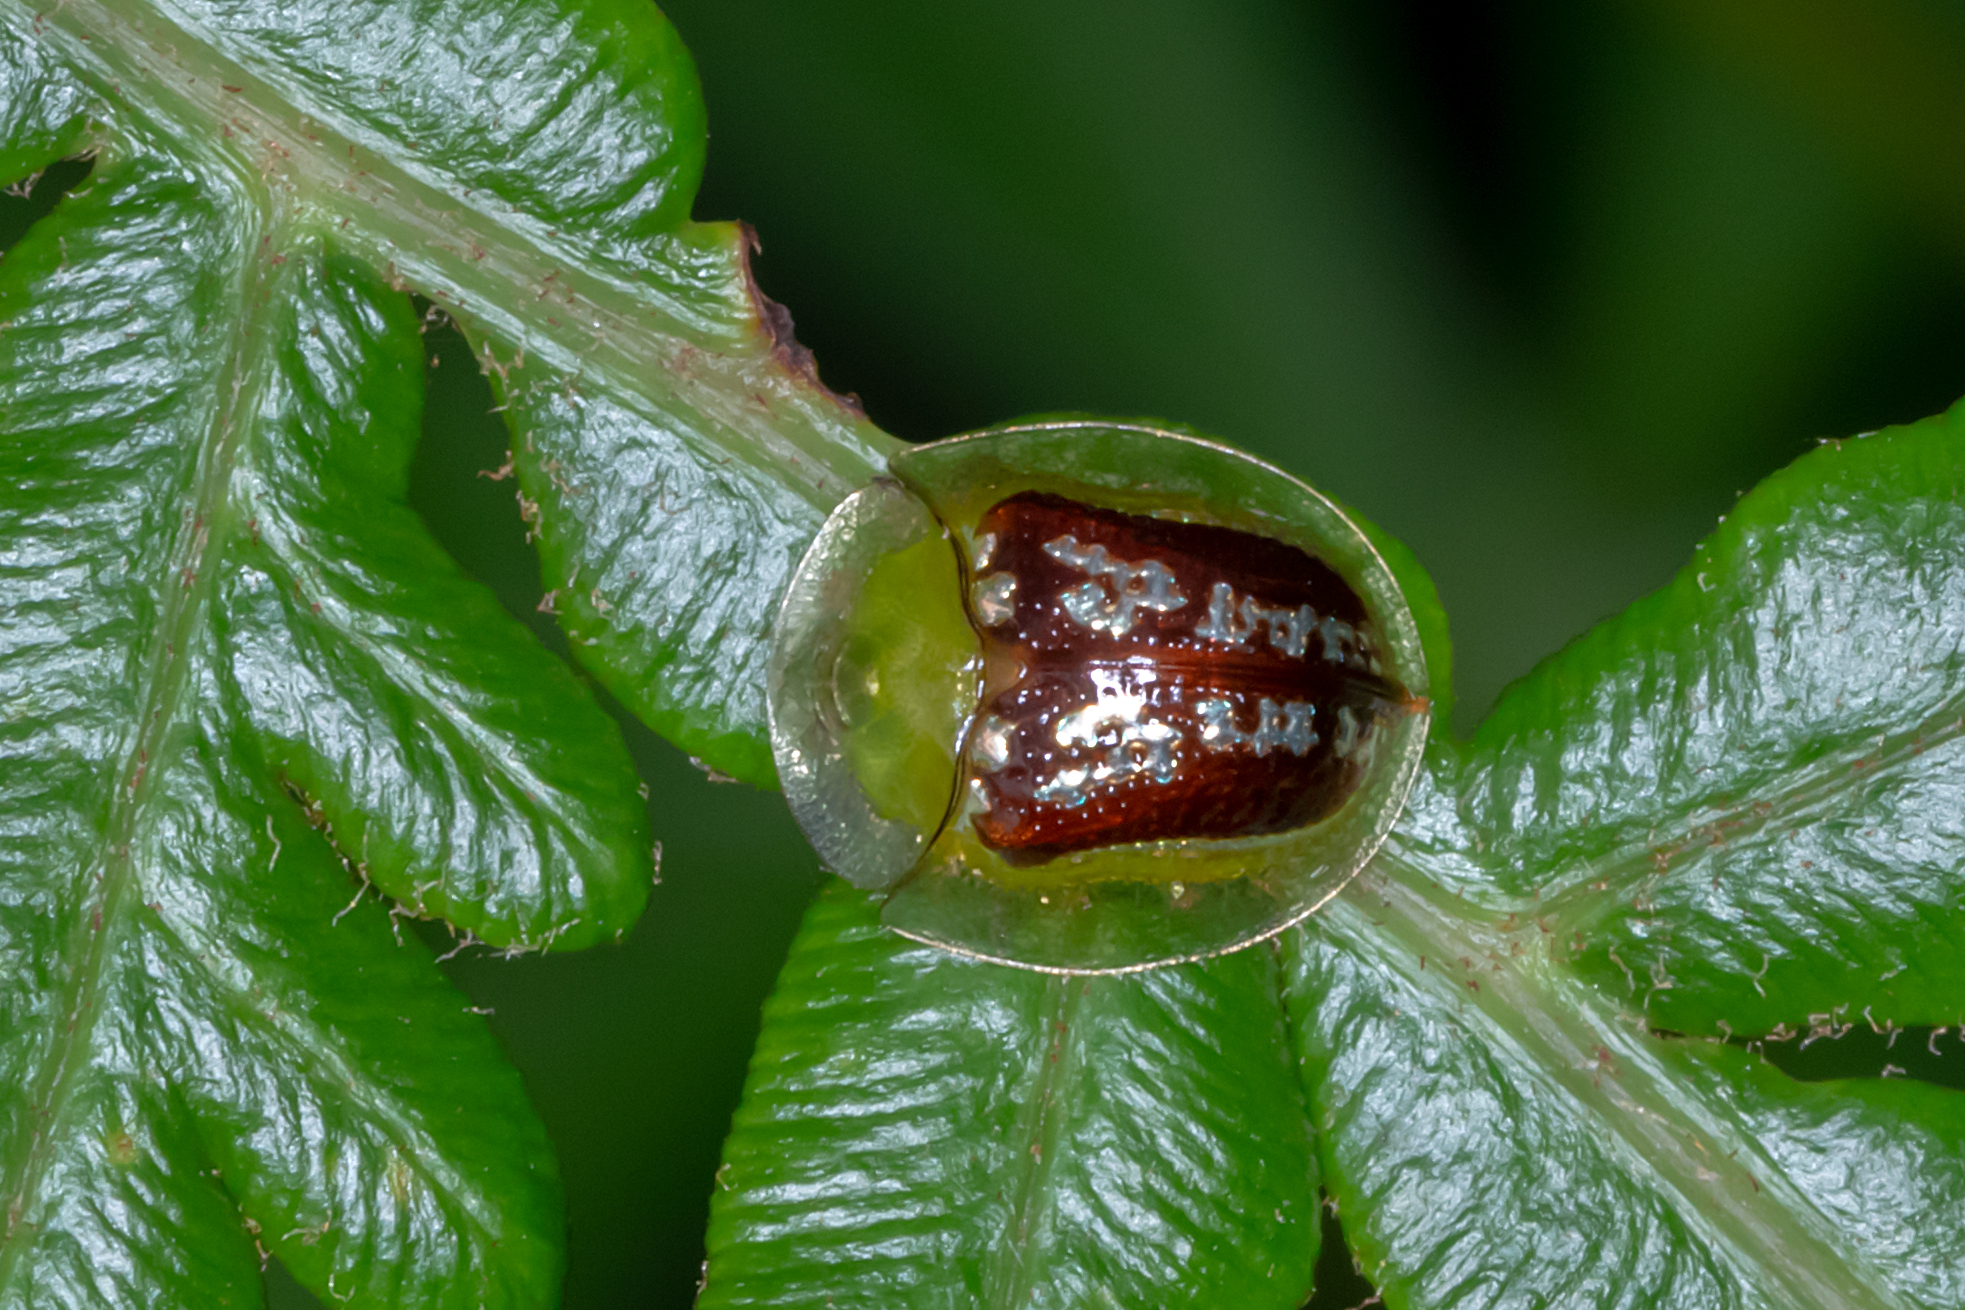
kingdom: Animalia
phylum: Arthropoda
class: Insecta
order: Coleoptera
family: Chrysomelidae
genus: Cassida
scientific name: Cassida compuncta
